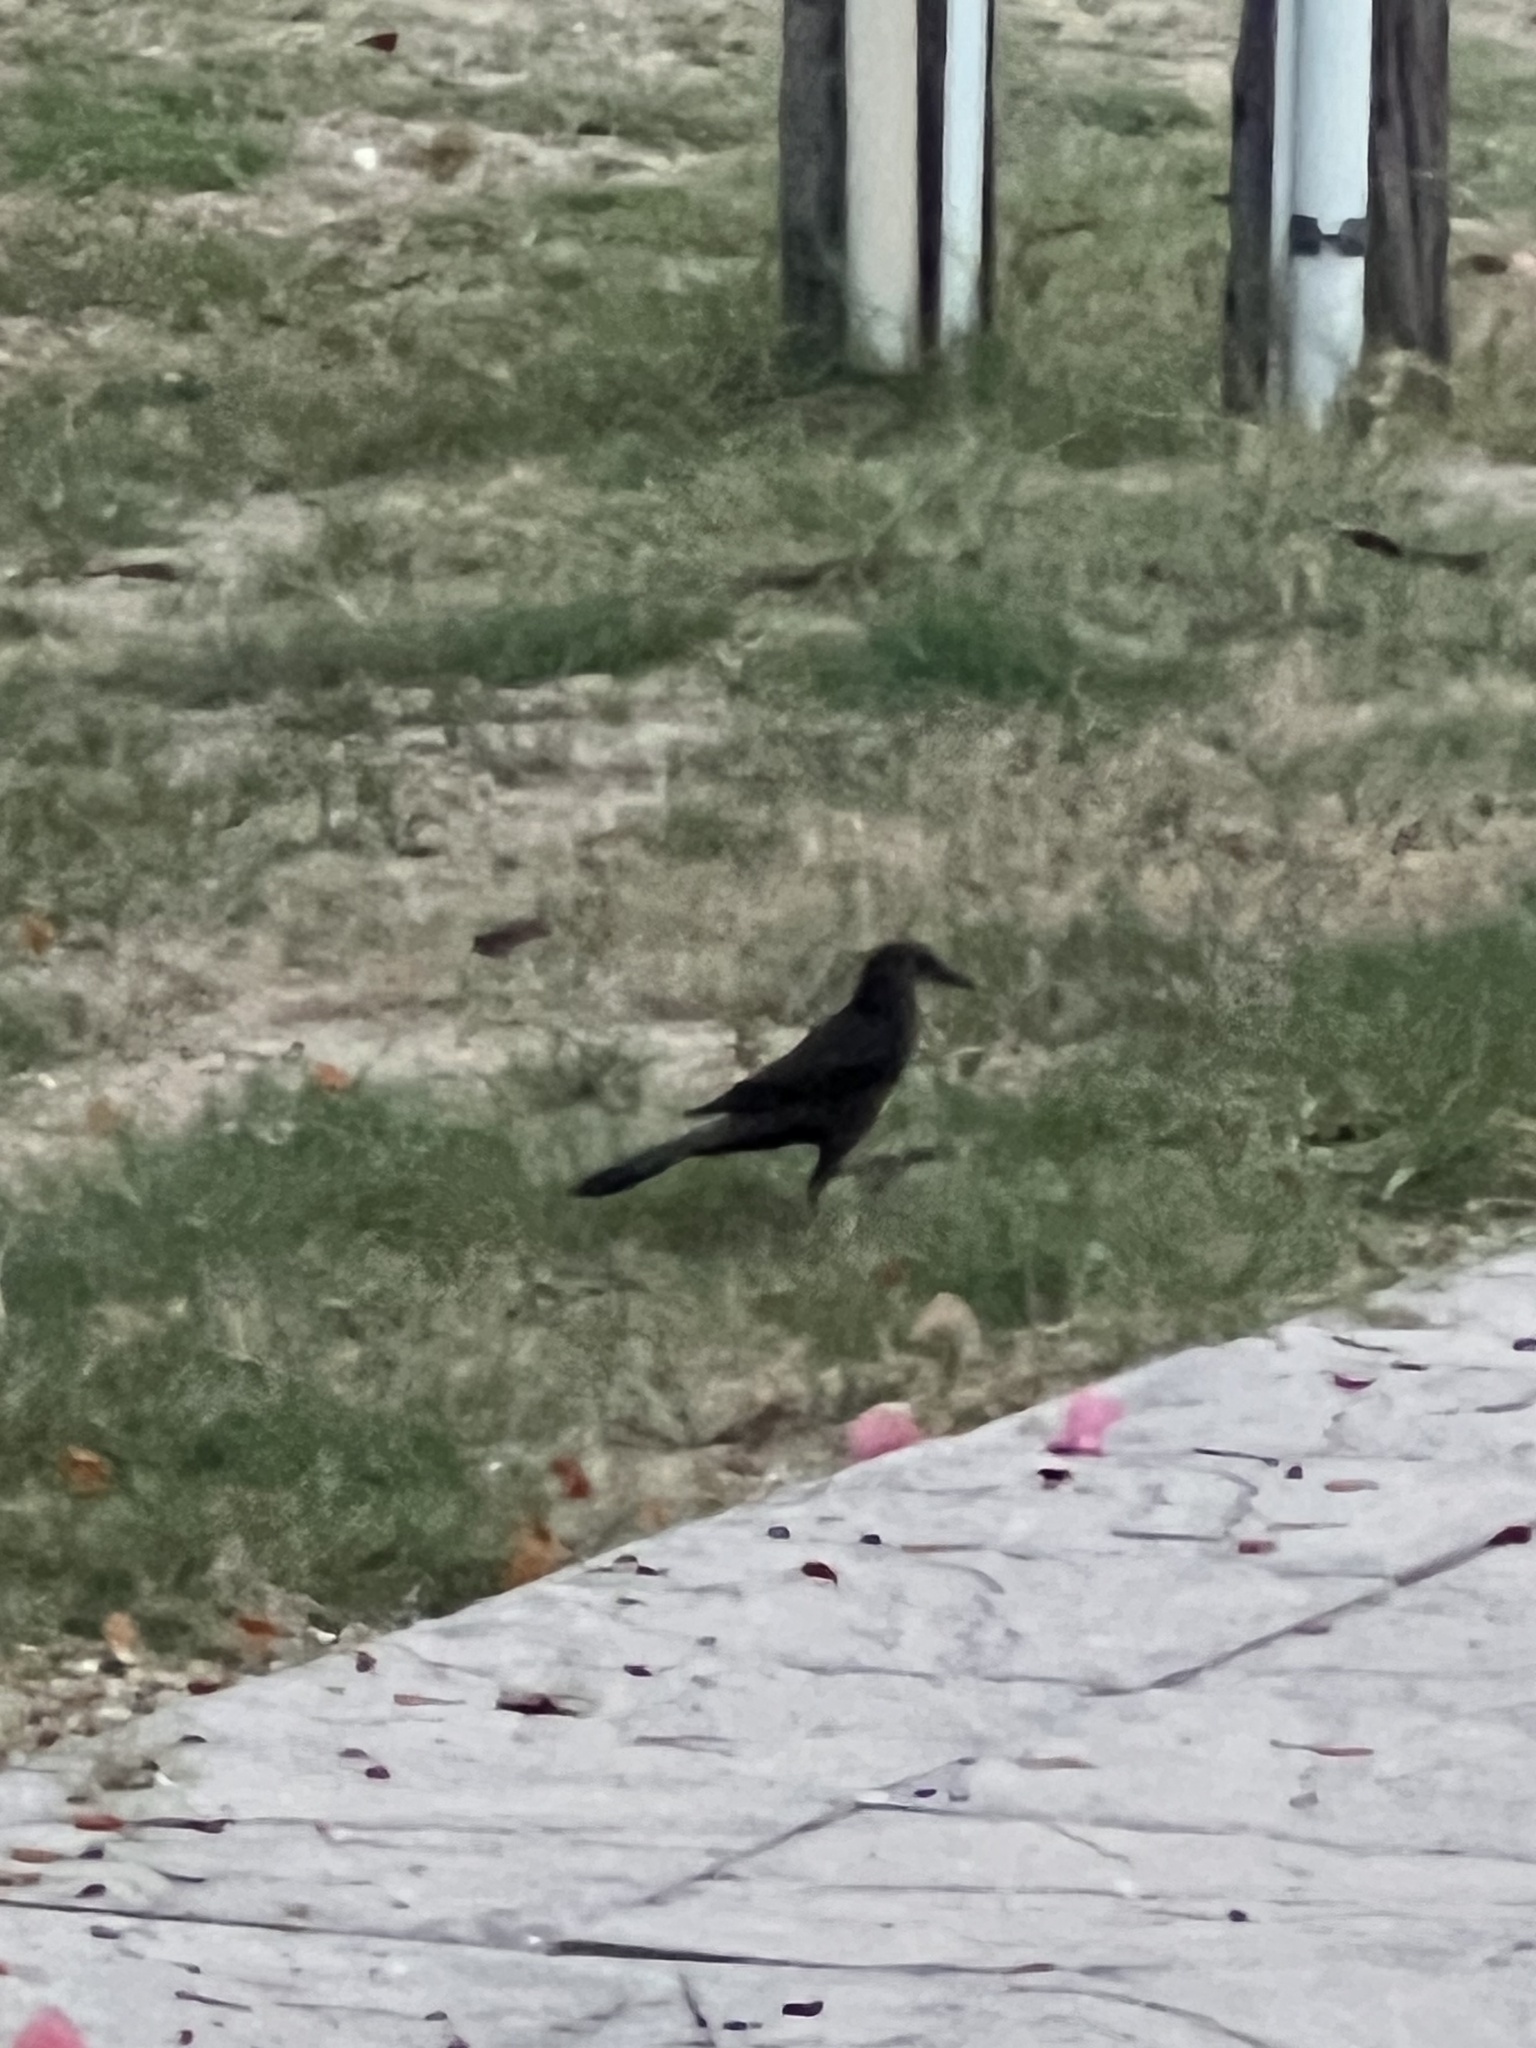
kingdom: Animalia
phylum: Chordata
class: Aves
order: Passeriformes
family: Icteridae
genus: Quiscalus
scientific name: Quiscalus mexicanus
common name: Great-tailed grackle
